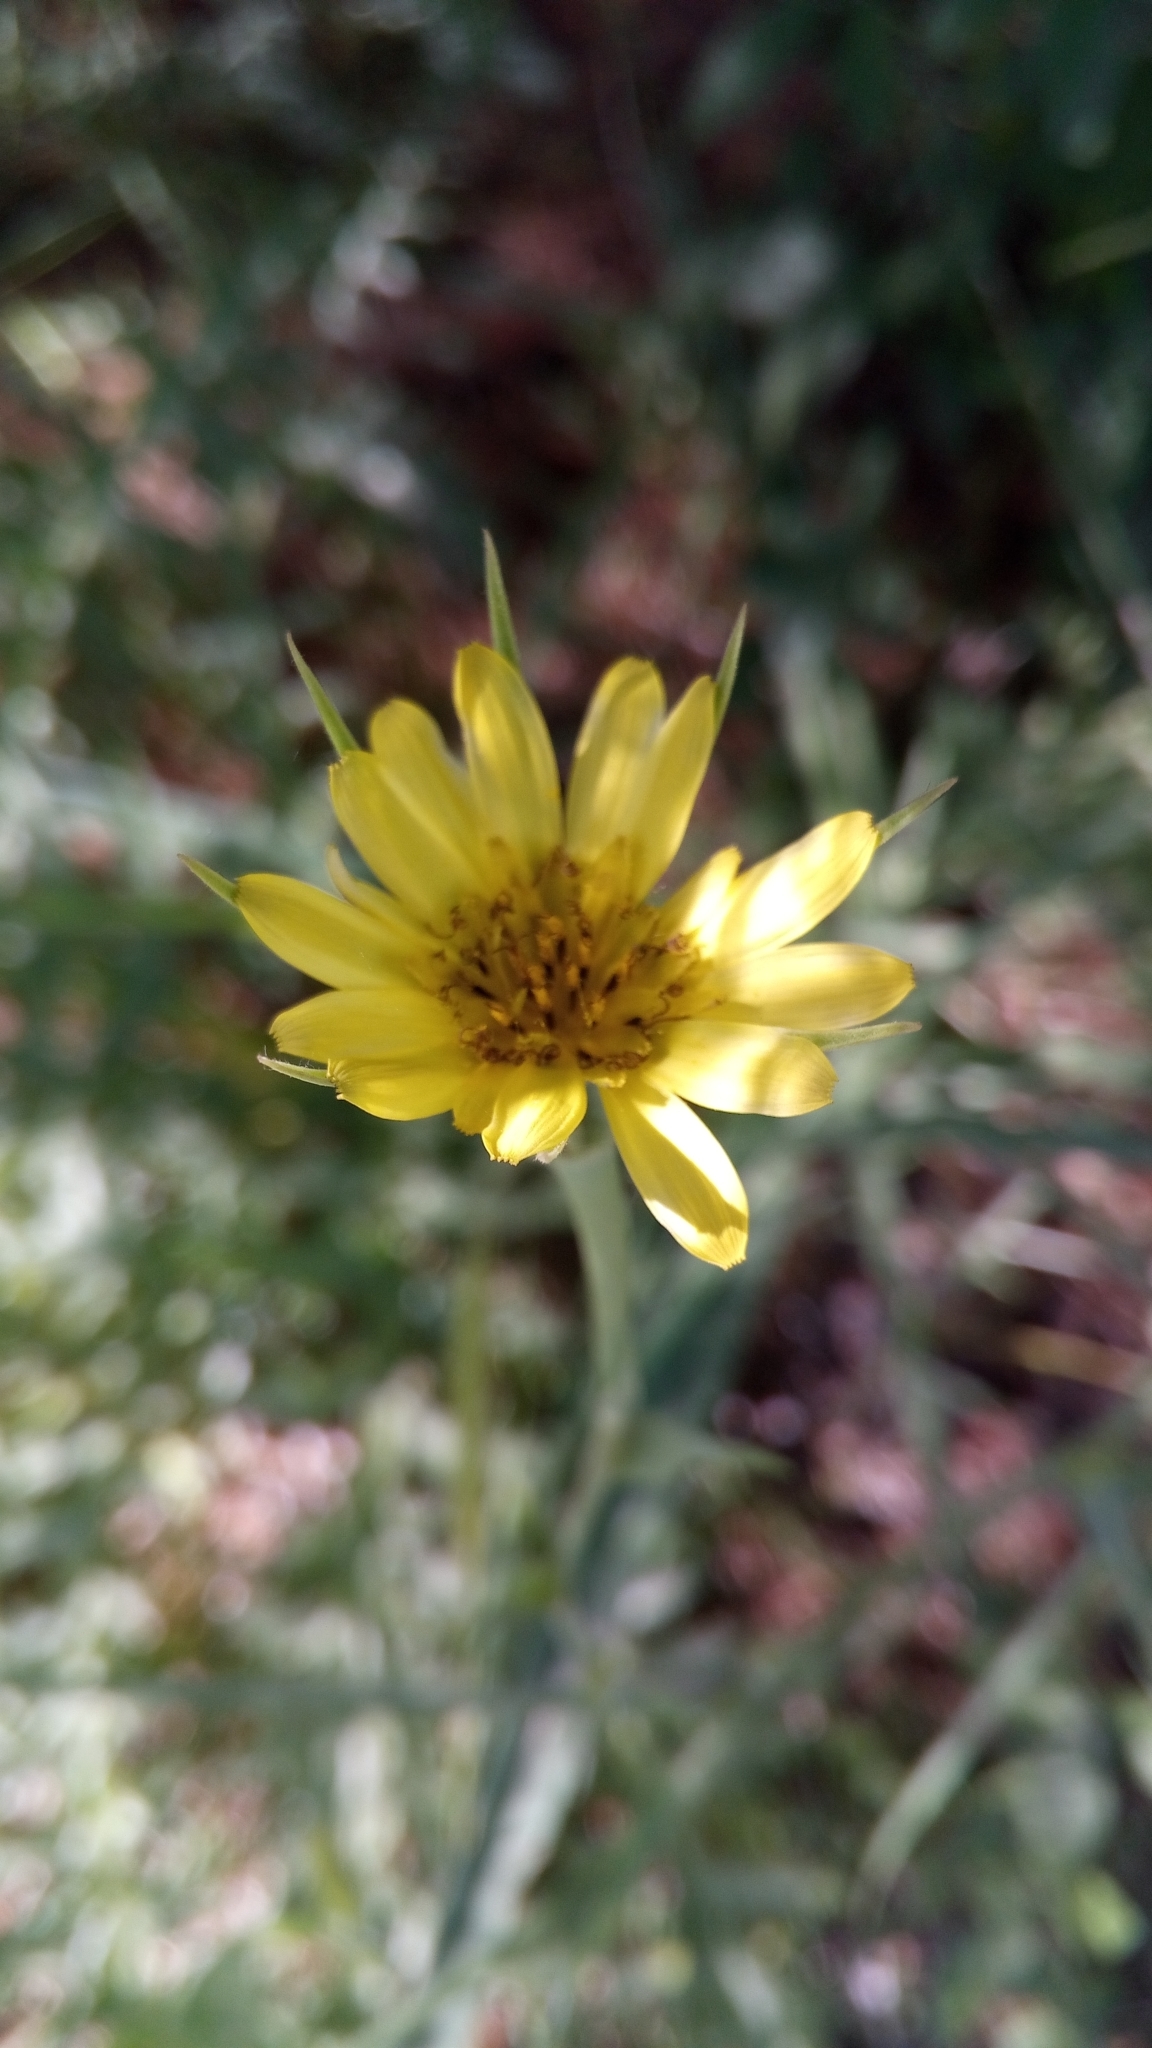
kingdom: Plantae
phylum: Tracheophyta
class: Magnoliopsida
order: Asterales
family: Asteraceae
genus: Tragopogon
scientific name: Tragopogon dubius
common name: Yellow salsify
